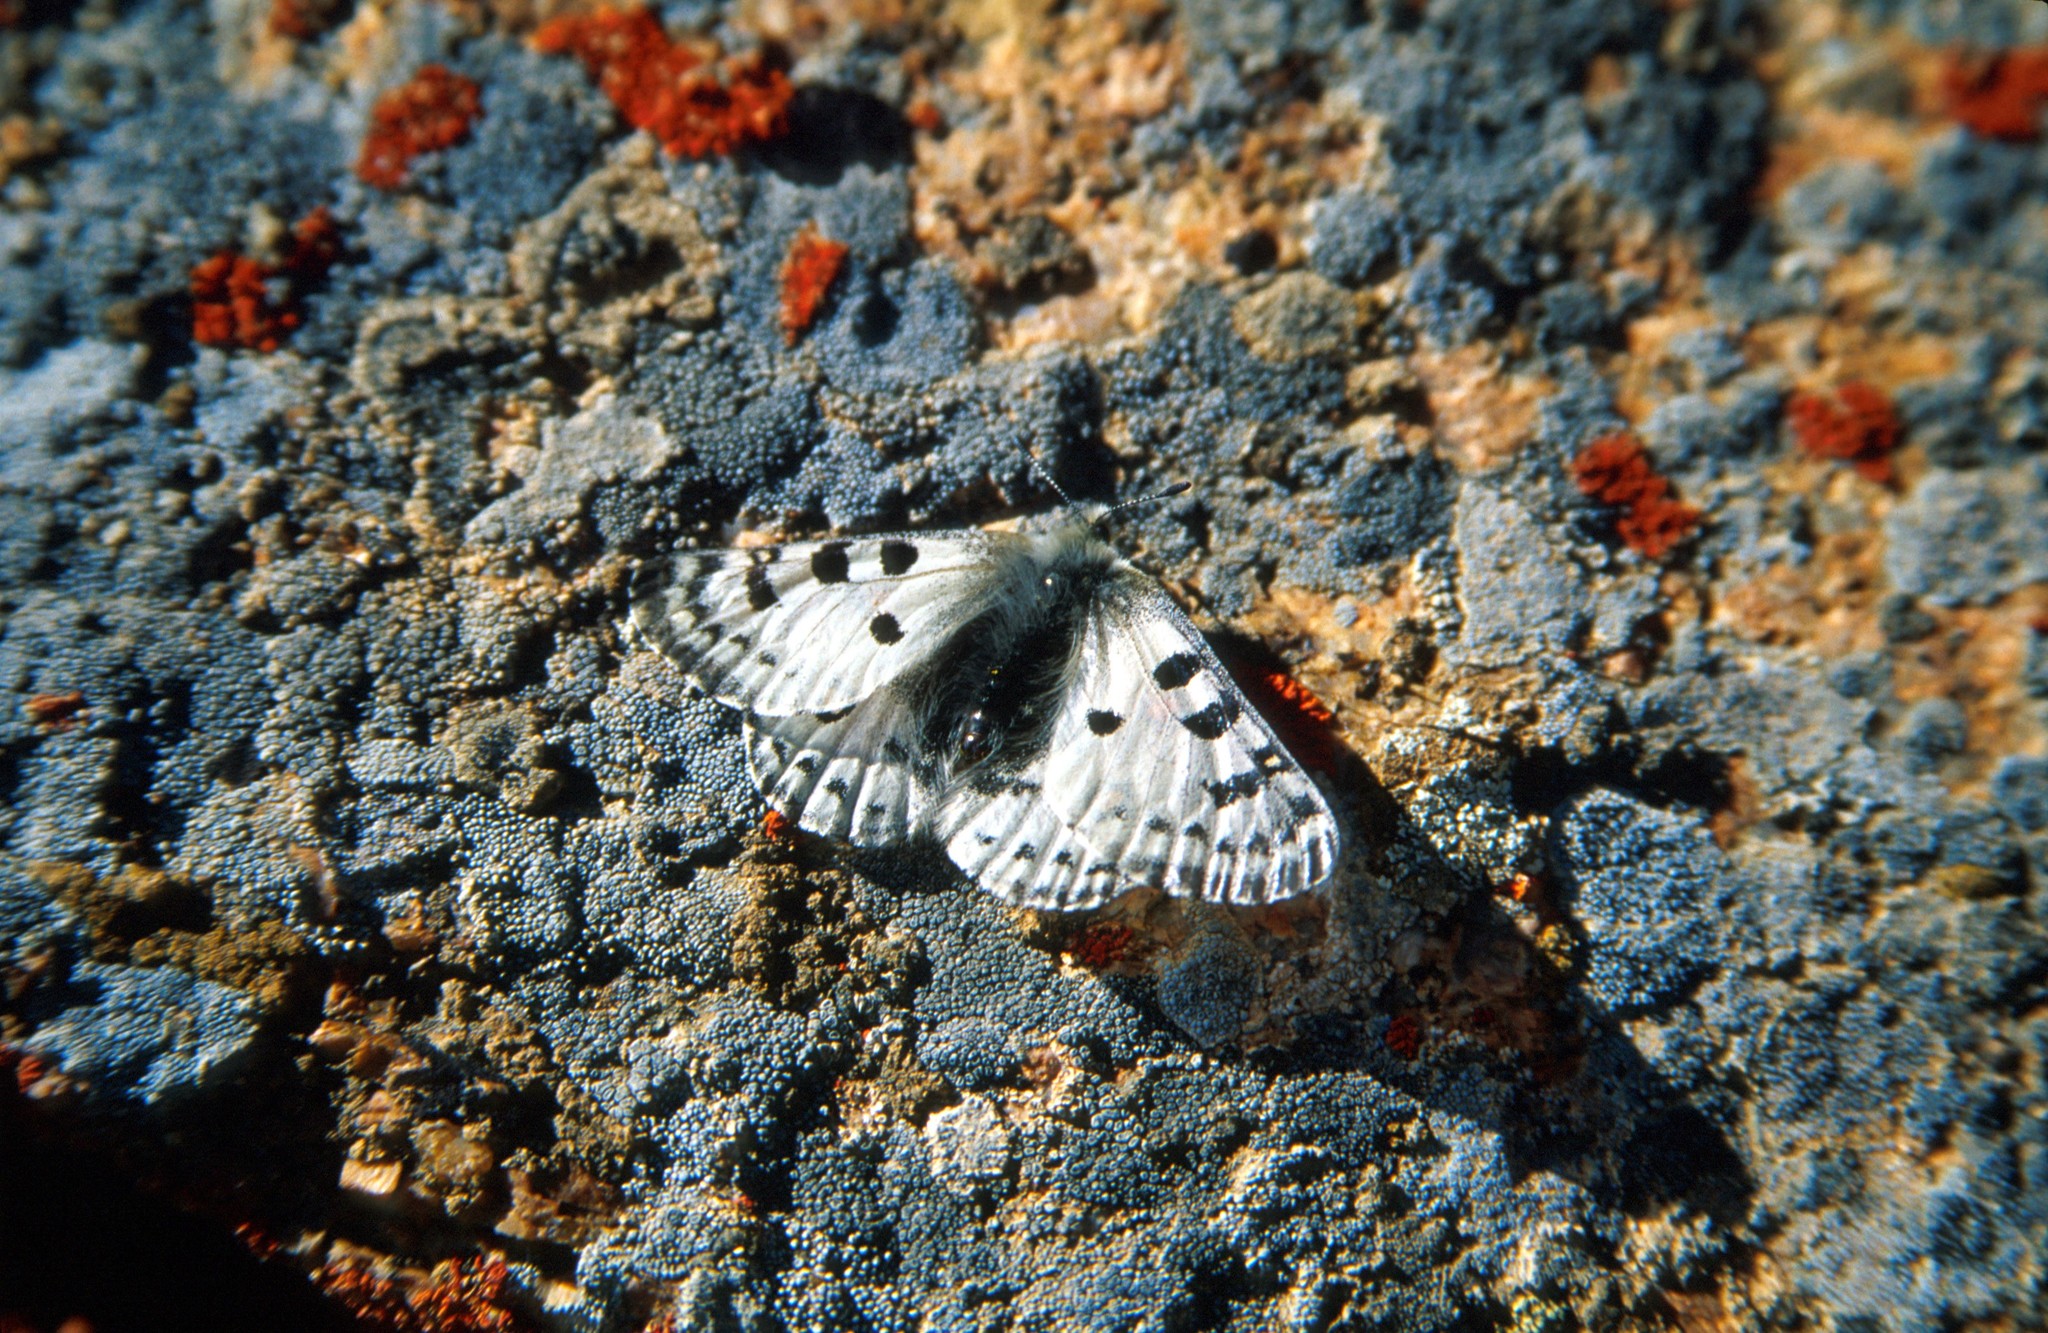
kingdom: Animalia
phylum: Arthropoda
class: Insecta
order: Lepidoptera
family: Papilionidae
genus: Parnassius
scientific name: Parnassius actius
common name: Scarce red apollo
